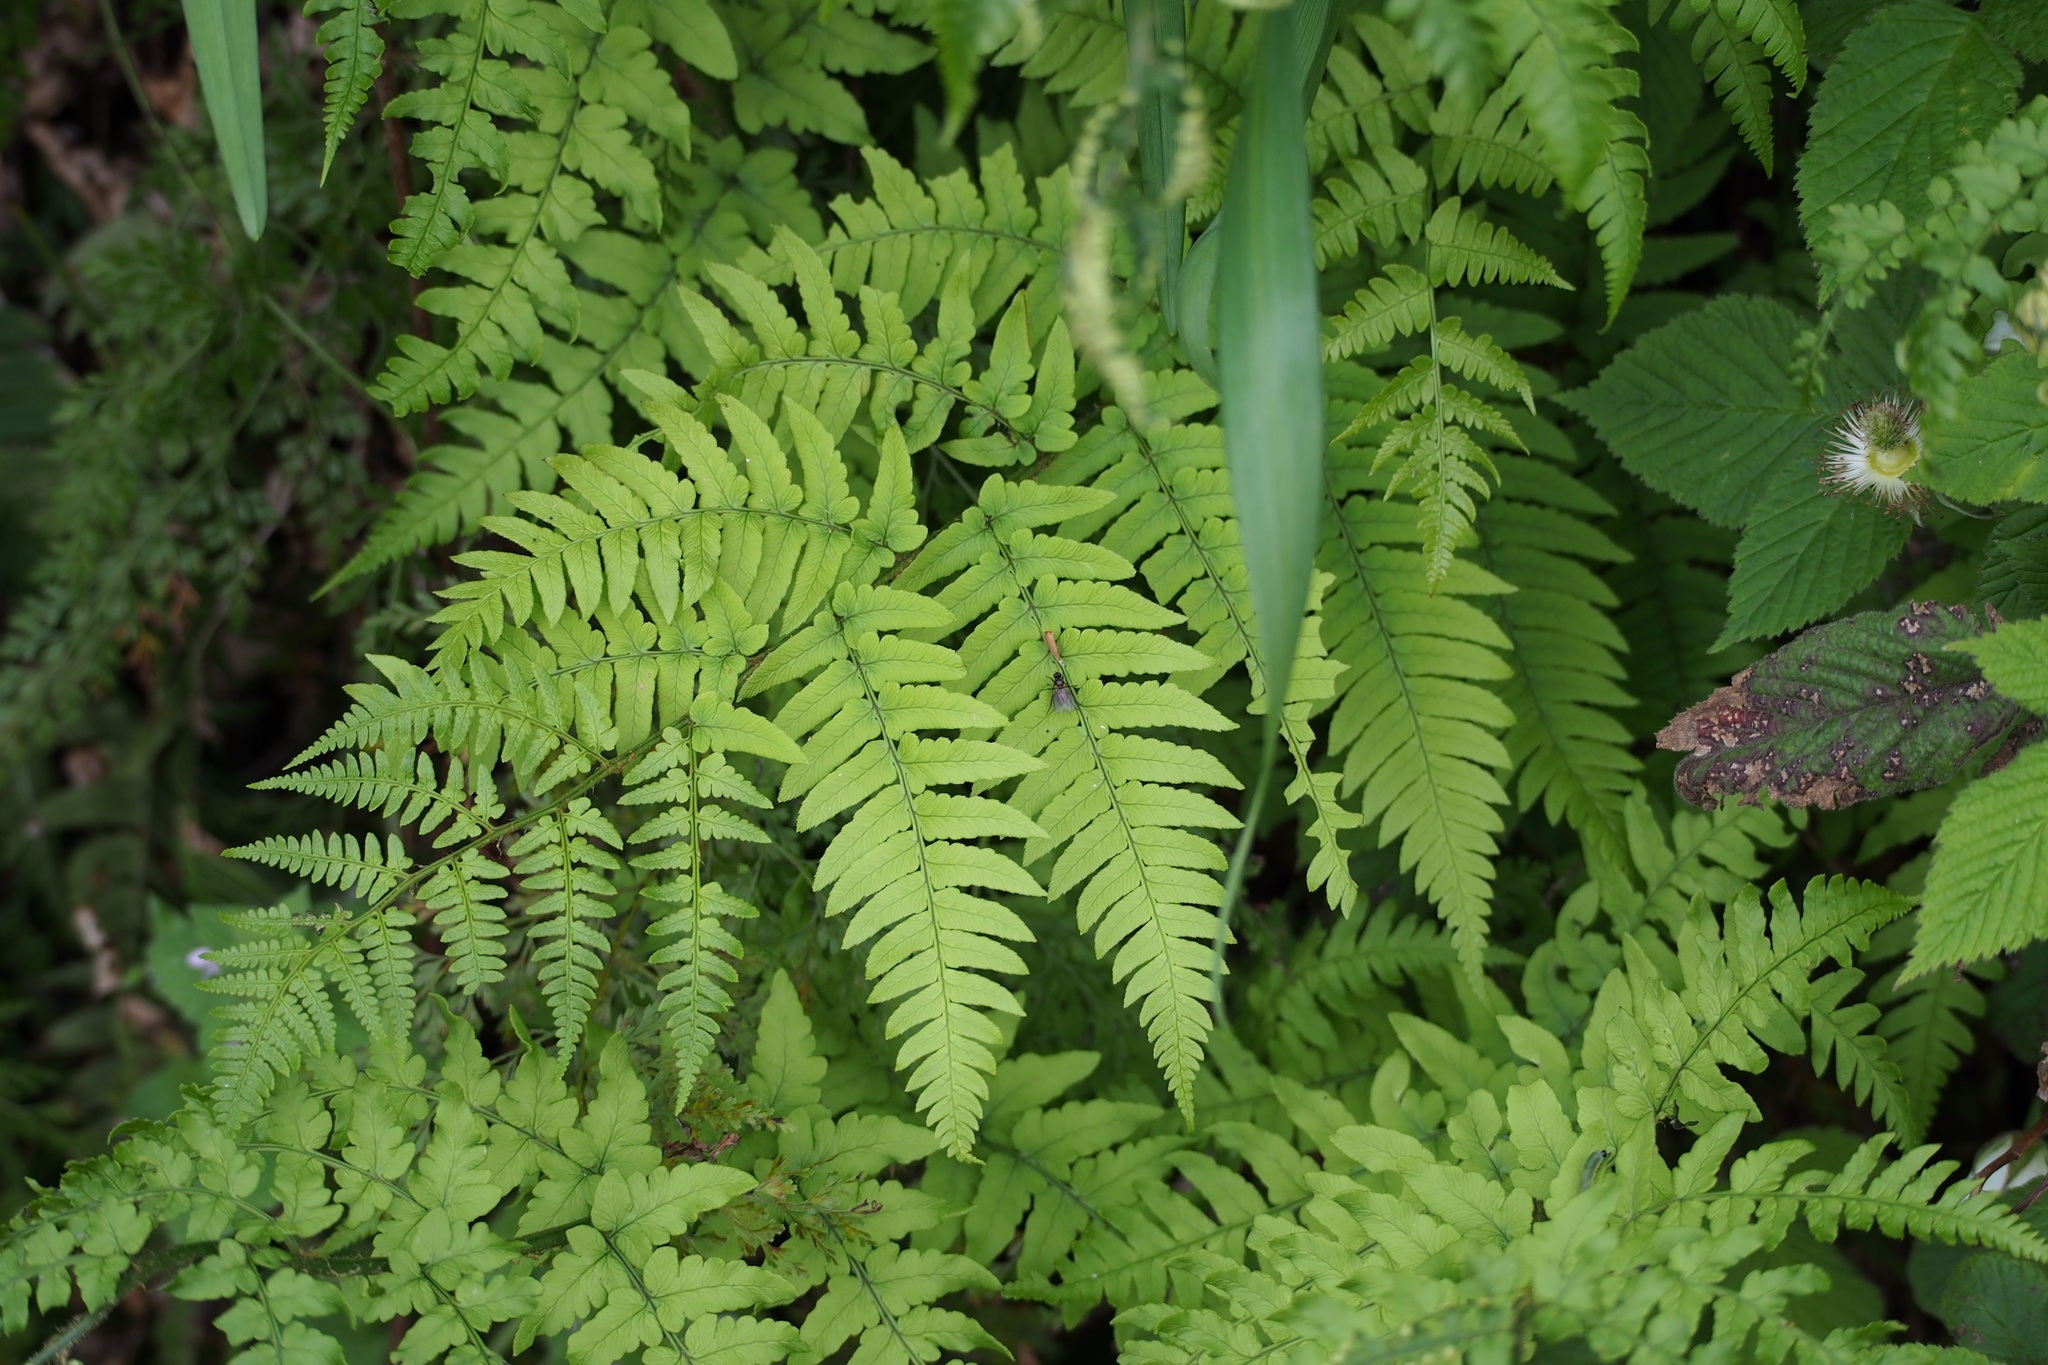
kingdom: Plantae
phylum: Tracheophyta
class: Polypodiopsida
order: Polypodiales
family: Dryopteridaceae
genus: Dryopteris
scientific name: Dryopteris lacera
